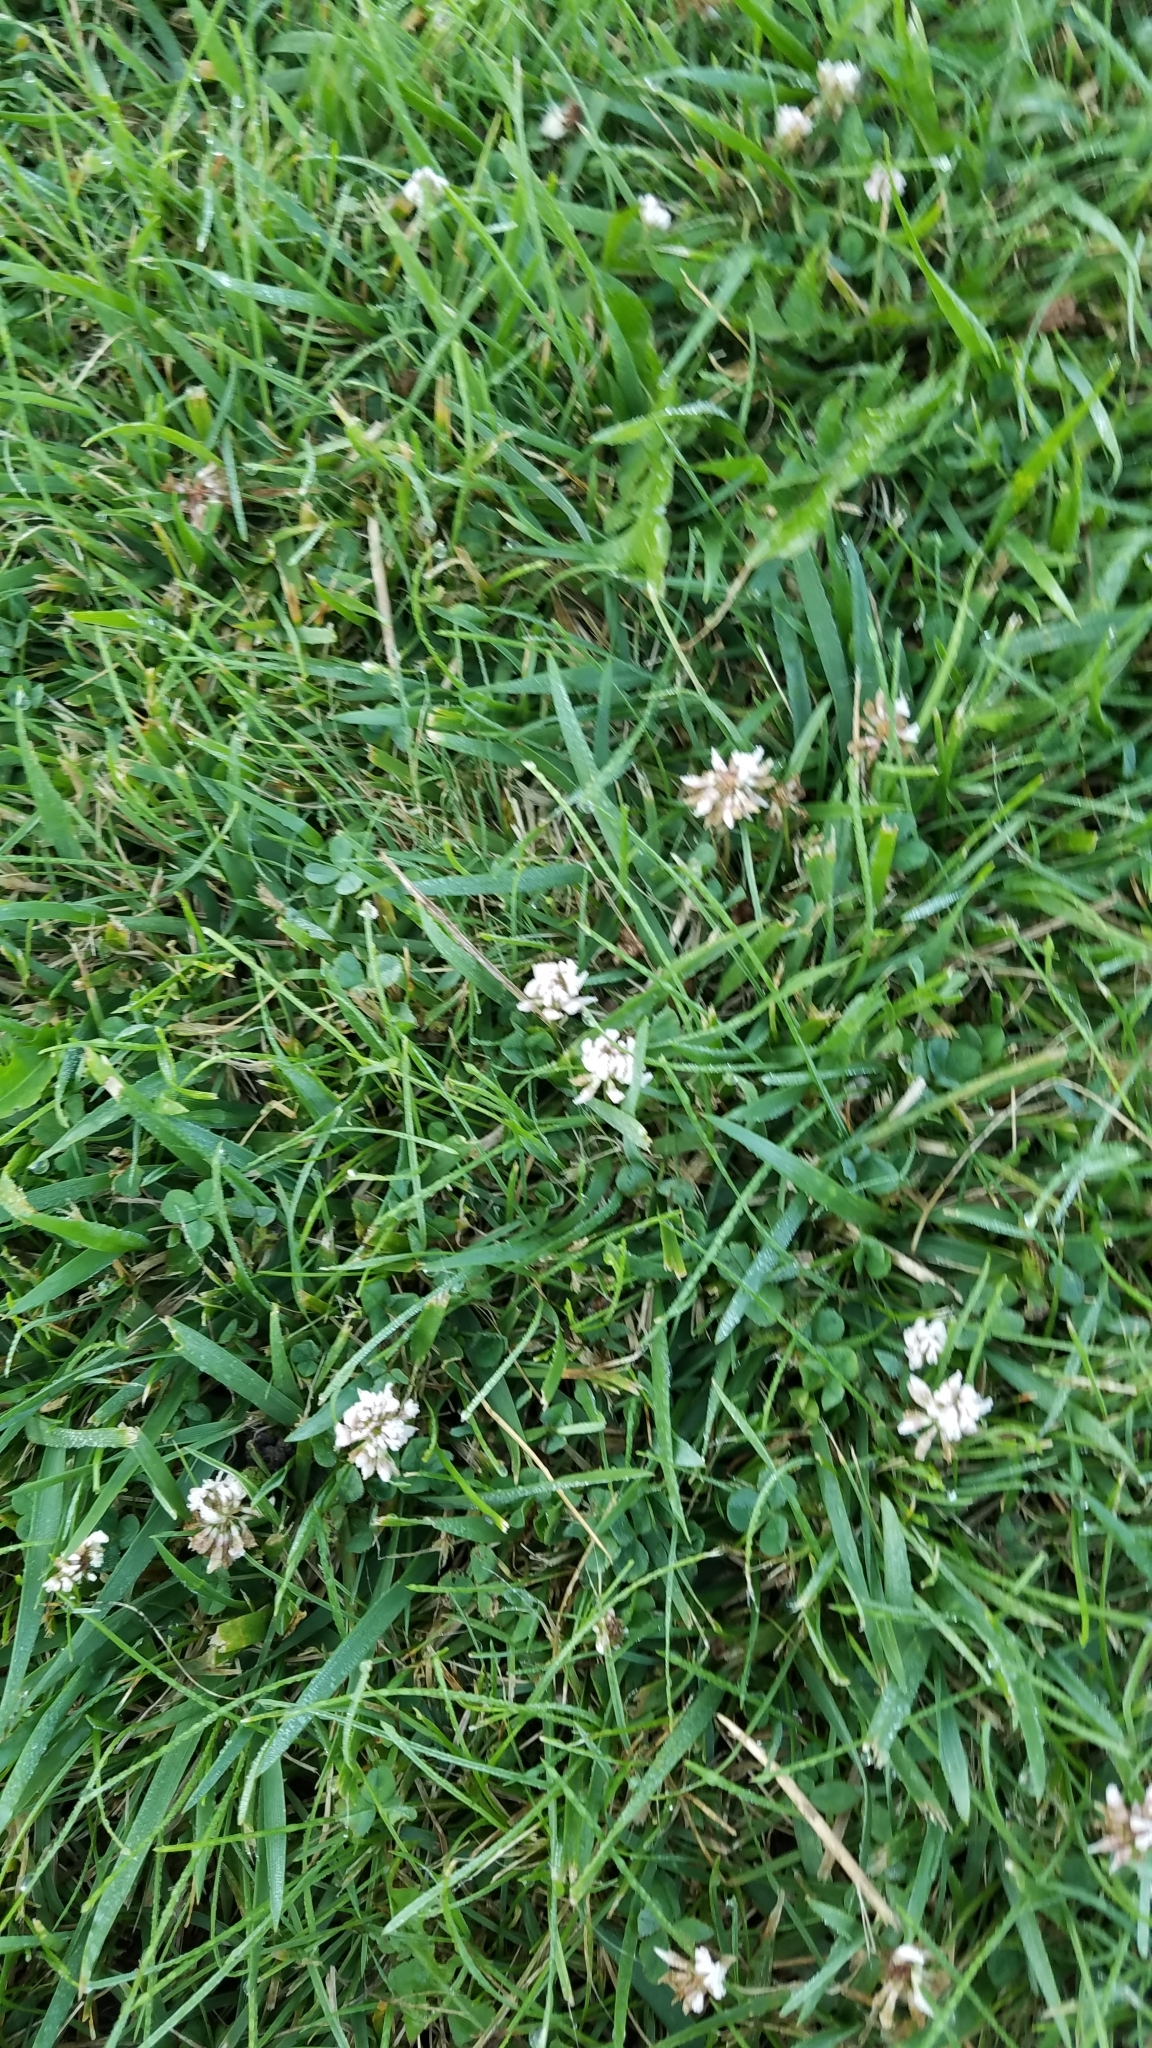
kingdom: Plantae
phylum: Tracheophyta
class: Magnoliopsida
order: Fabales
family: Fabaceae
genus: Trifolium
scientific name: Trifolium repens
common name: White clover
